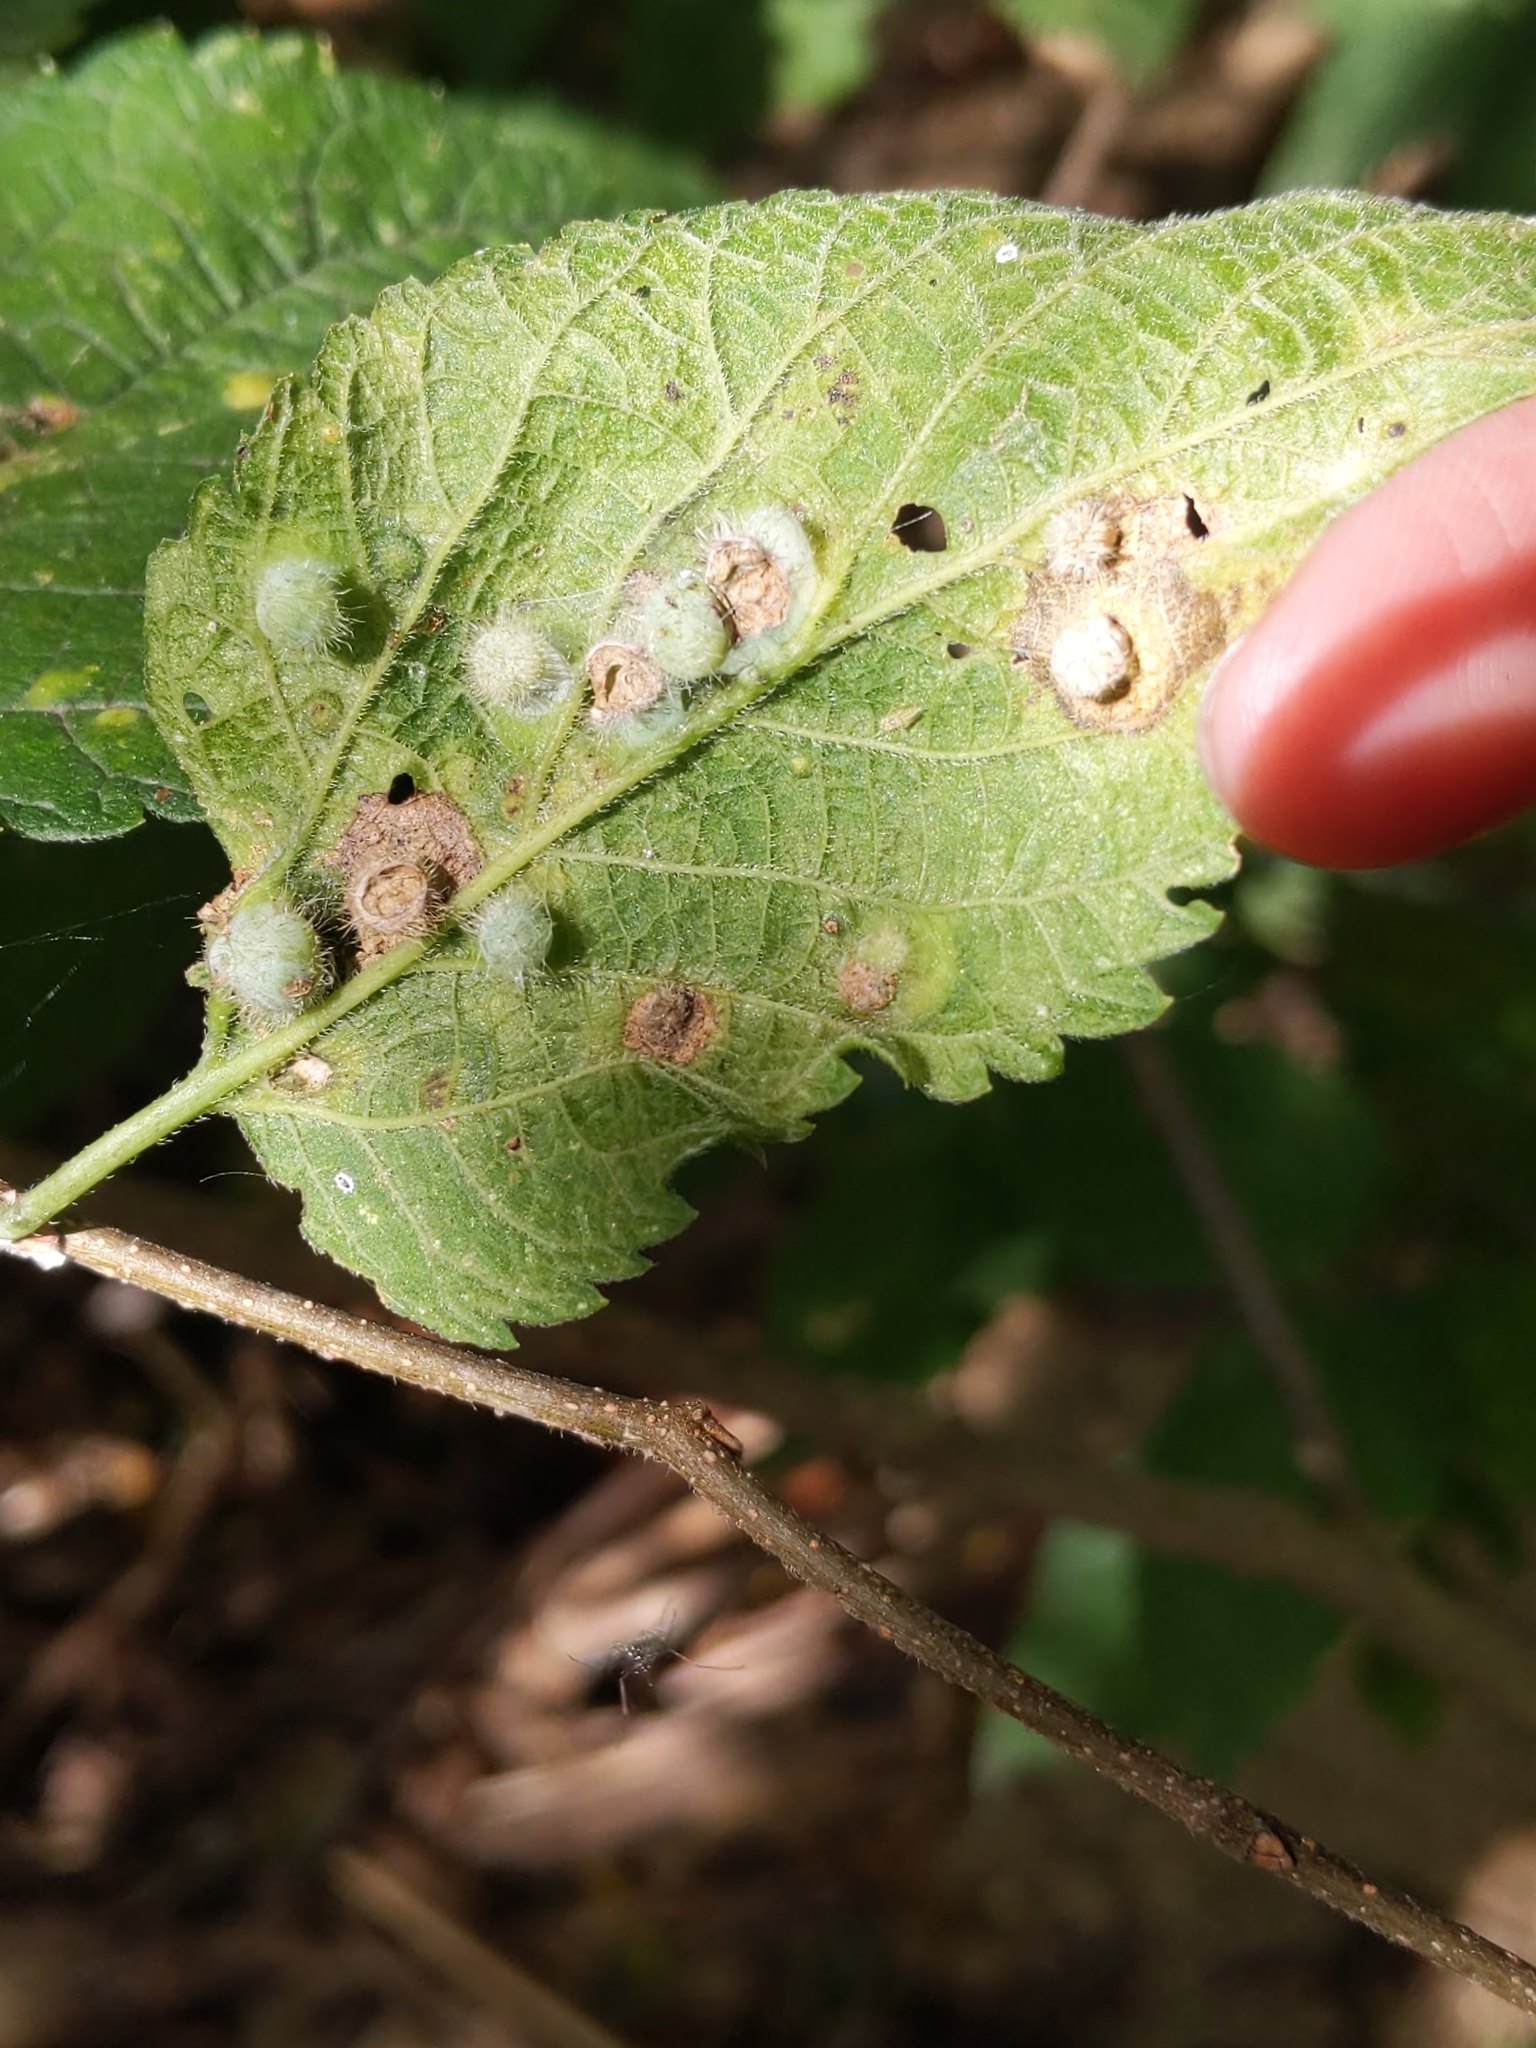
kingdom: Animalia
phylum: Arthropoda
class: Insecta
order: Hemiptera
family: Aphalaridae
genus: Pachypsylla
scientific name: Pachypsylla celtidismamma
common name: Hackberry nipplegall psyllid
